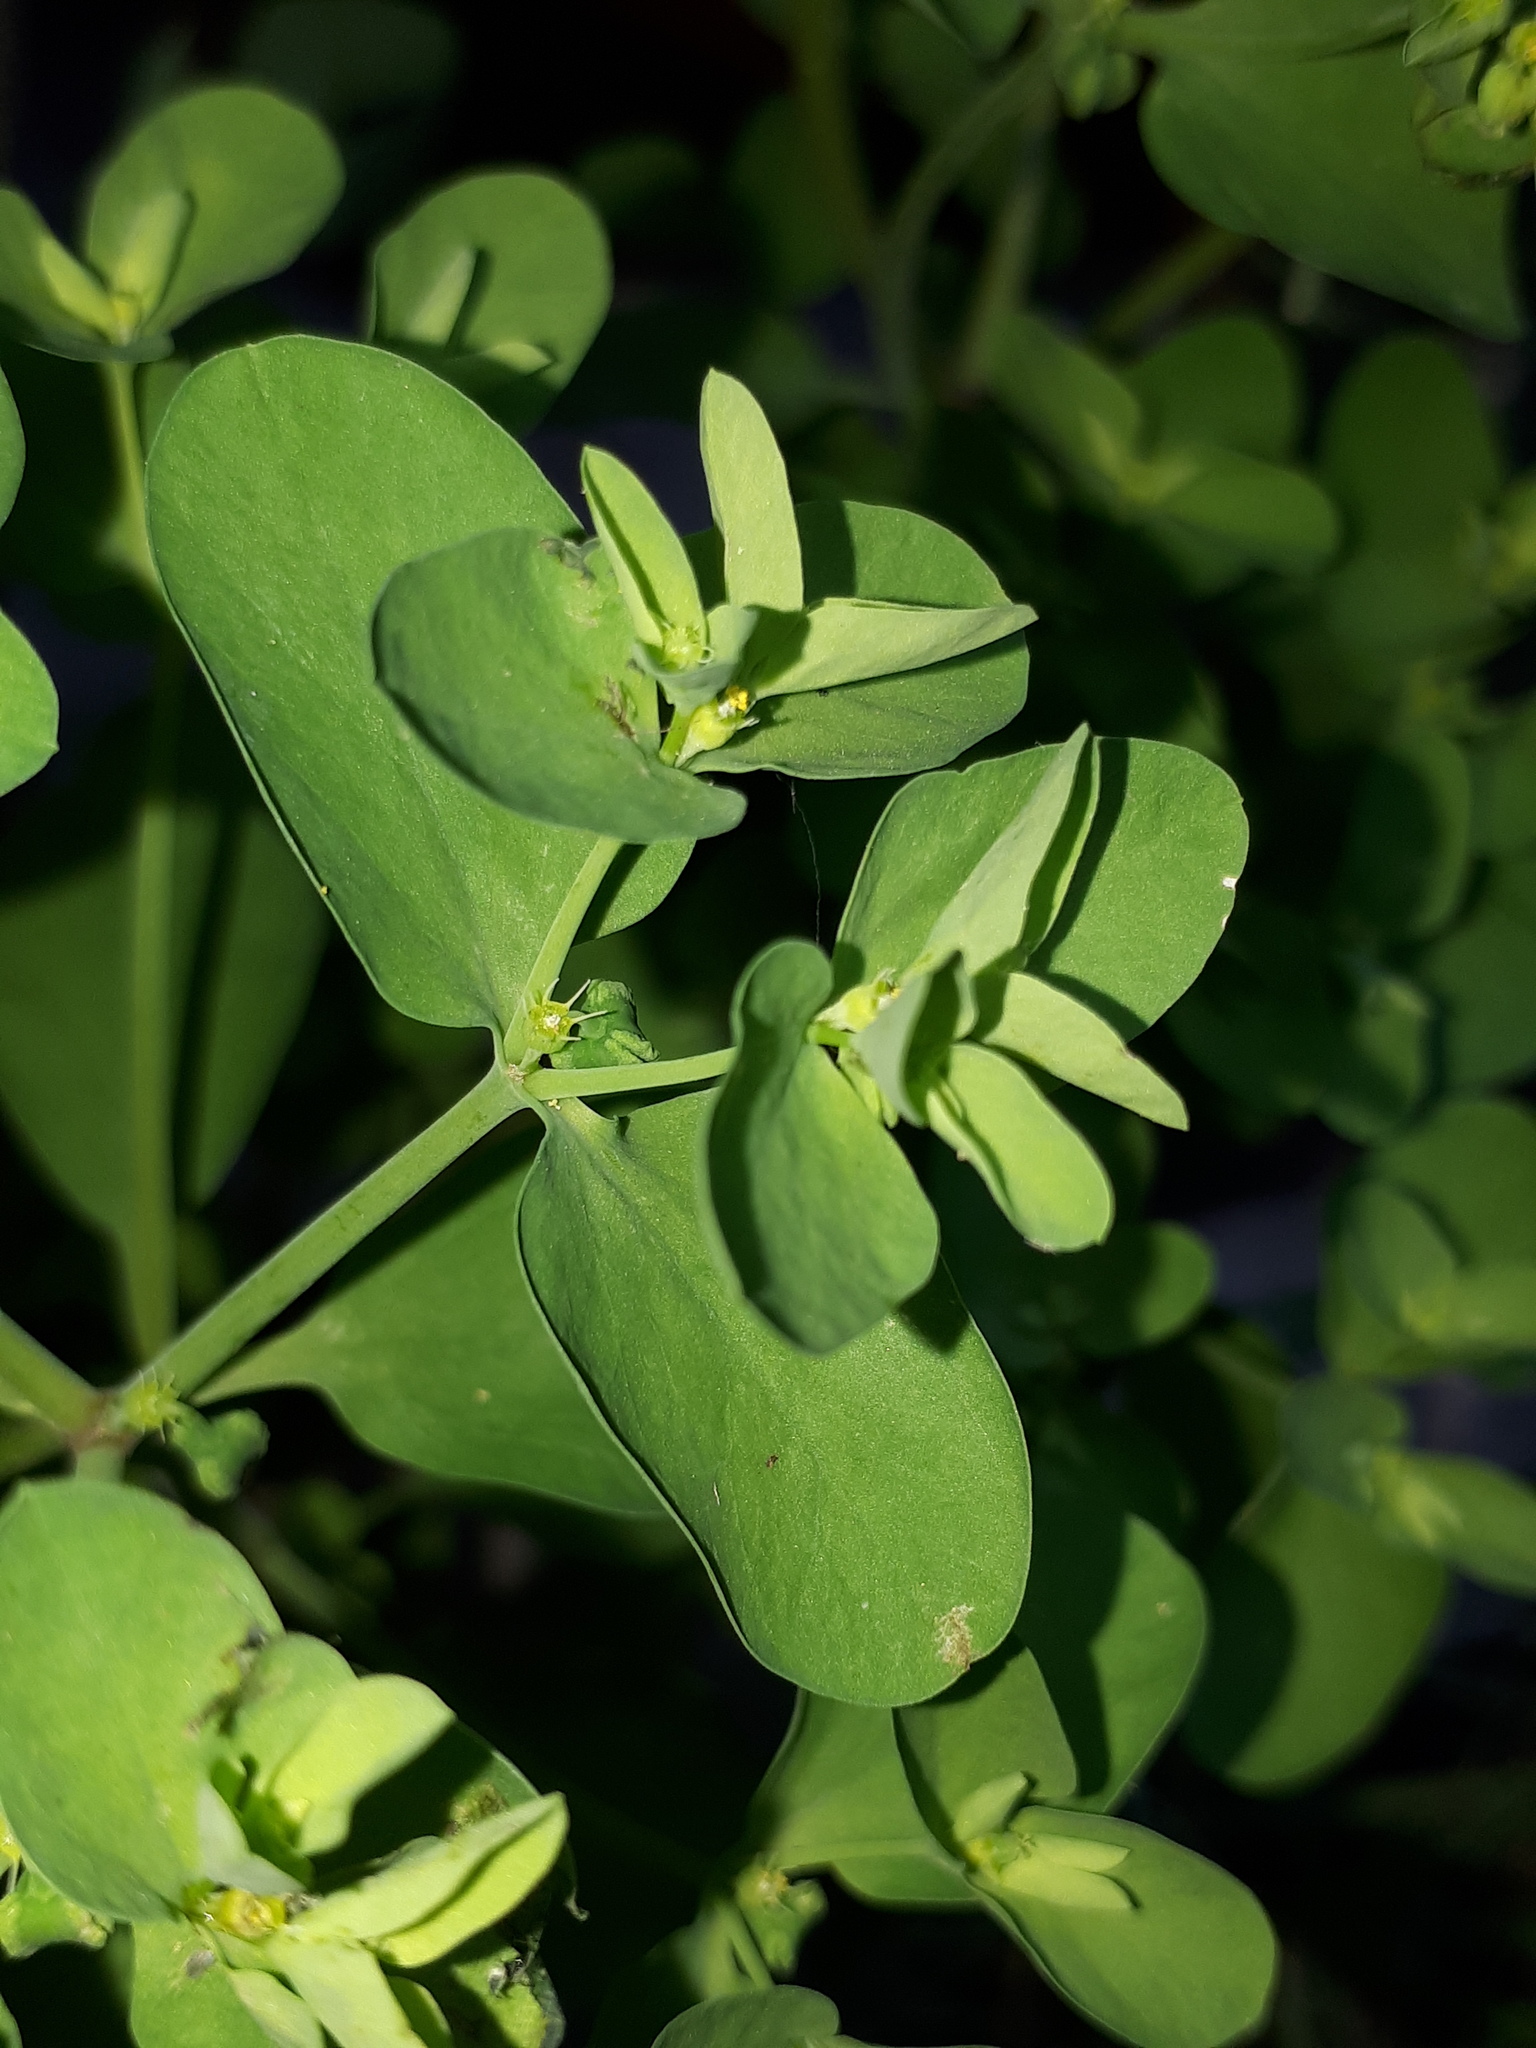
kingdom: Plantae
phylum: Tracheophyta
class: Magnoliopsida
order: Malpighiales
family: Euphorbiaceae
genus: Euphorbia
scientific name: Euphorbia peplus
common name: Petty spurge
